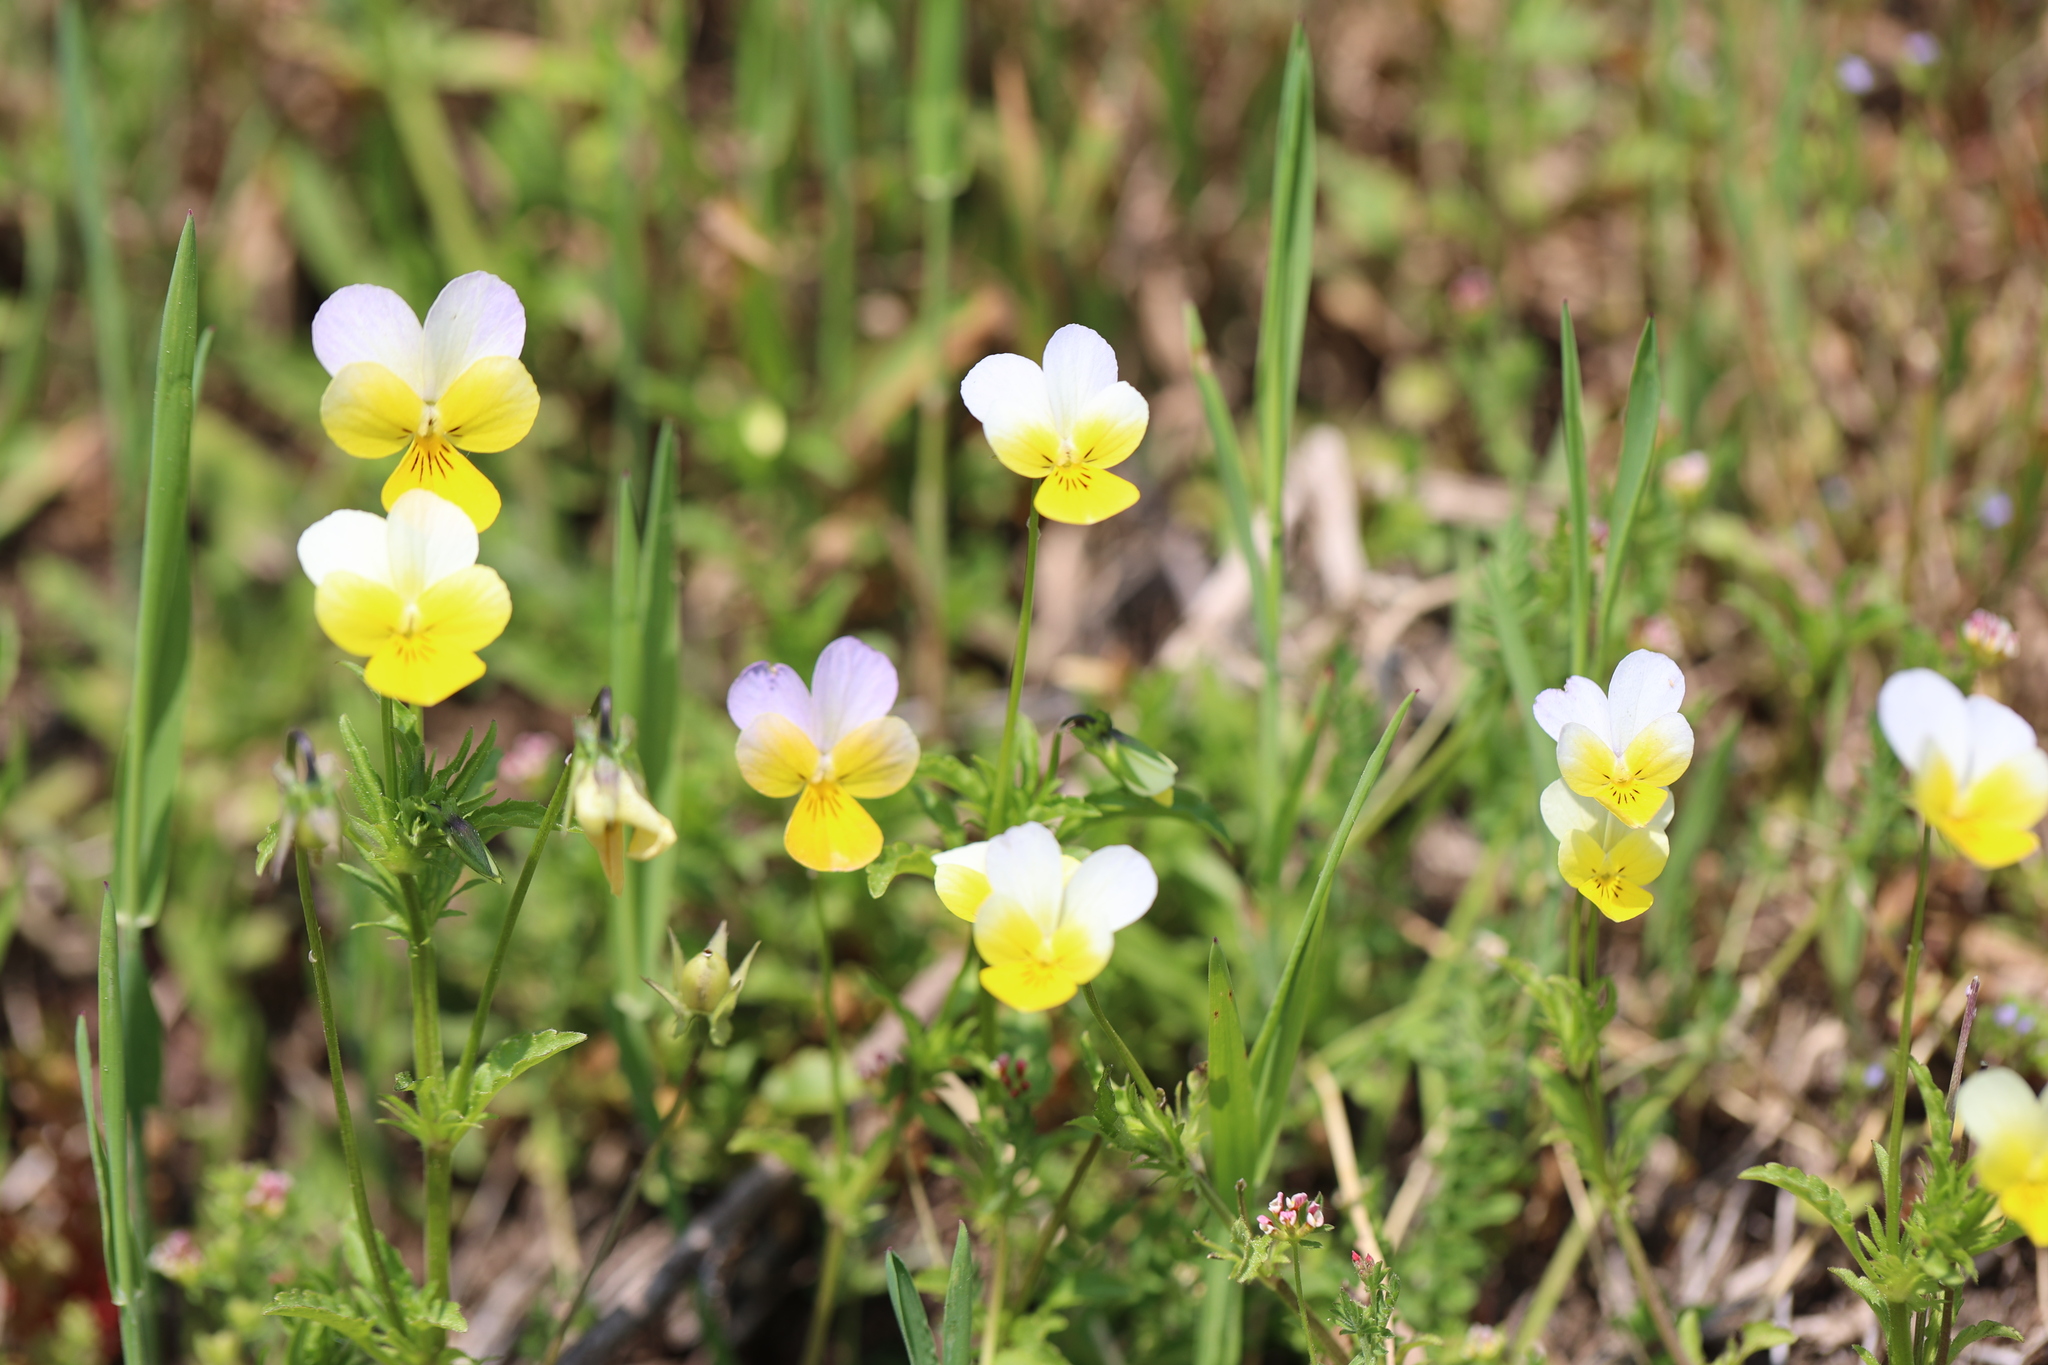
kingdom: Plantae
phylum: Tracheophyta
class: Magnoliopsida
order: Malpighiales
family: Violaceae
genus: Viola
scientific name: Viola arvensis
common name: Field pansy
